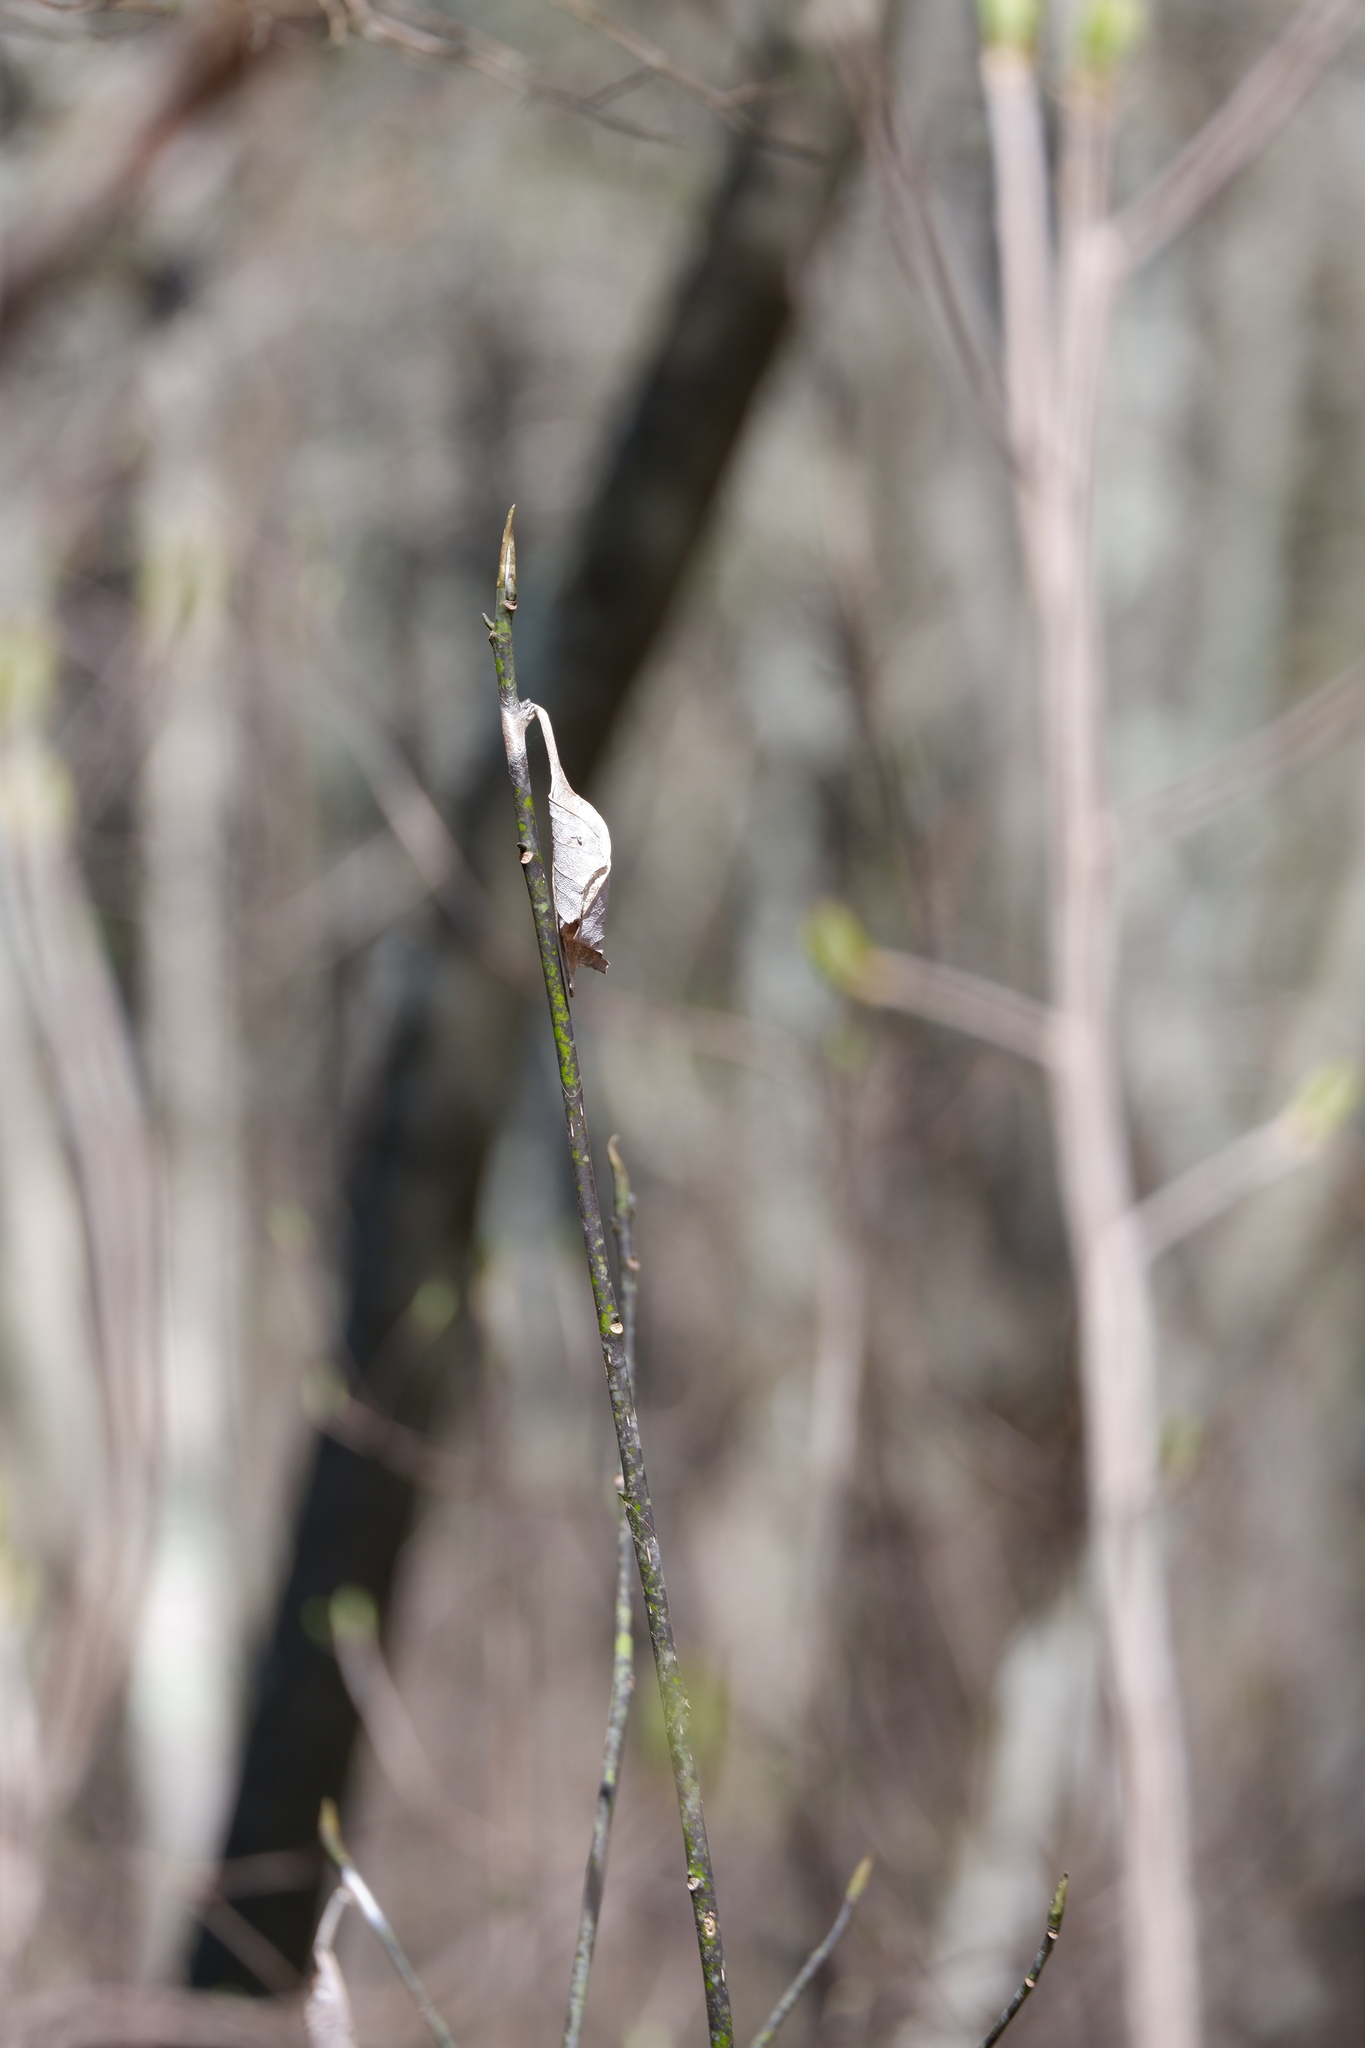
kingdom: Animalia
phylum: Arthropoda
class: Insecta
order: Lepidoptera
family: Saturniidae
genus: Callosamia
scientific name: Callosamia promethea
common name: Promethea silkmoth
